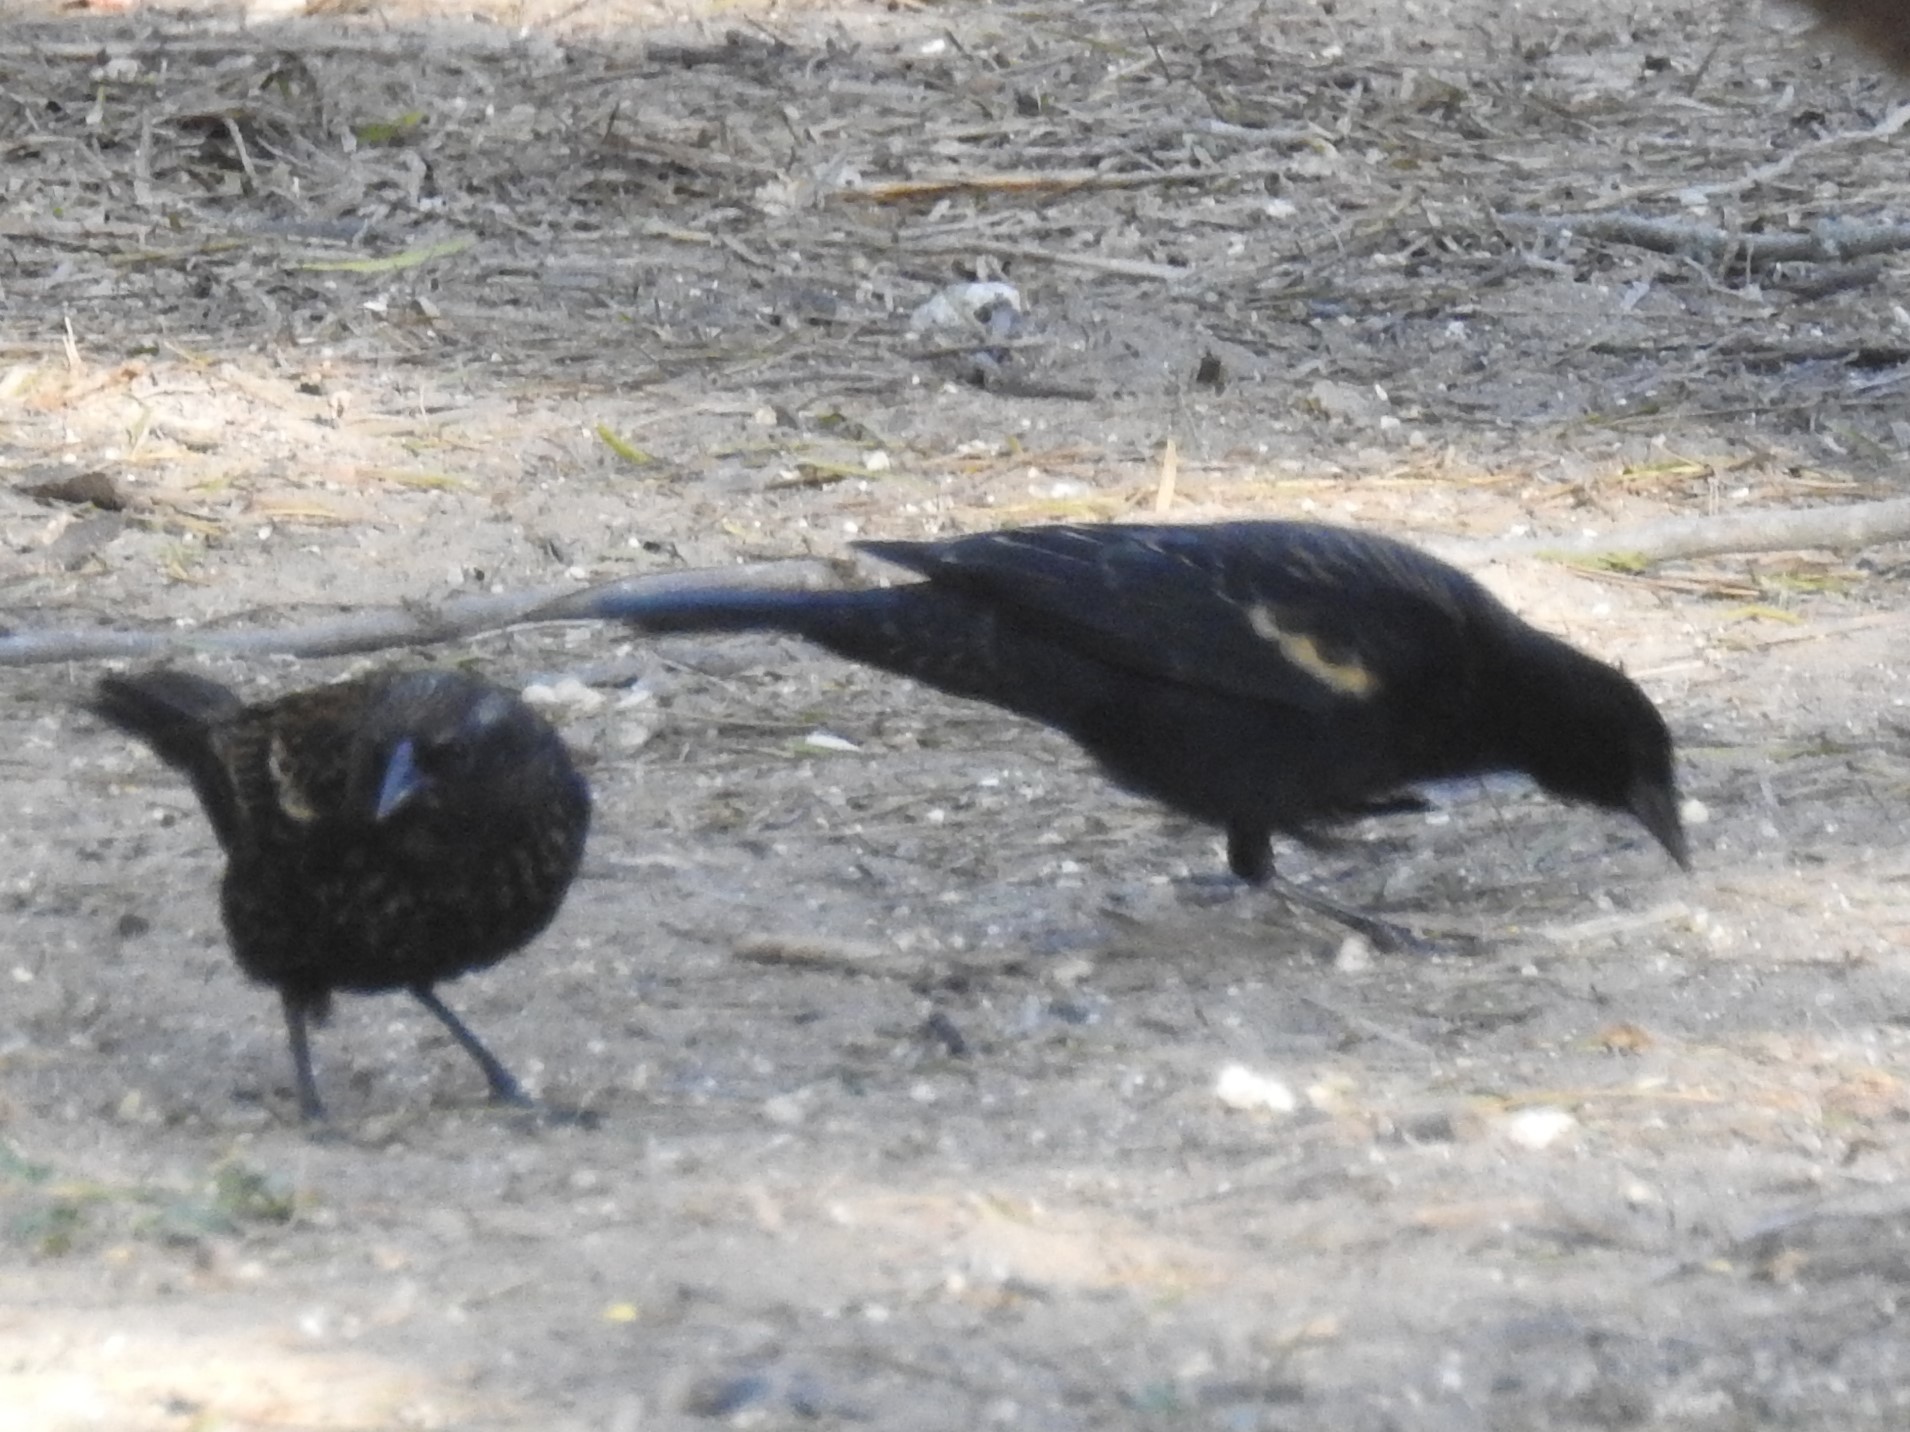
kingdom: Animalia
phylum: Chordata
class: Aves
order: Passeriformes
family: Icteridae
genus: Agelaius
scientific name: Agelaius phoeniceus
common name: Red-winged blackbird
